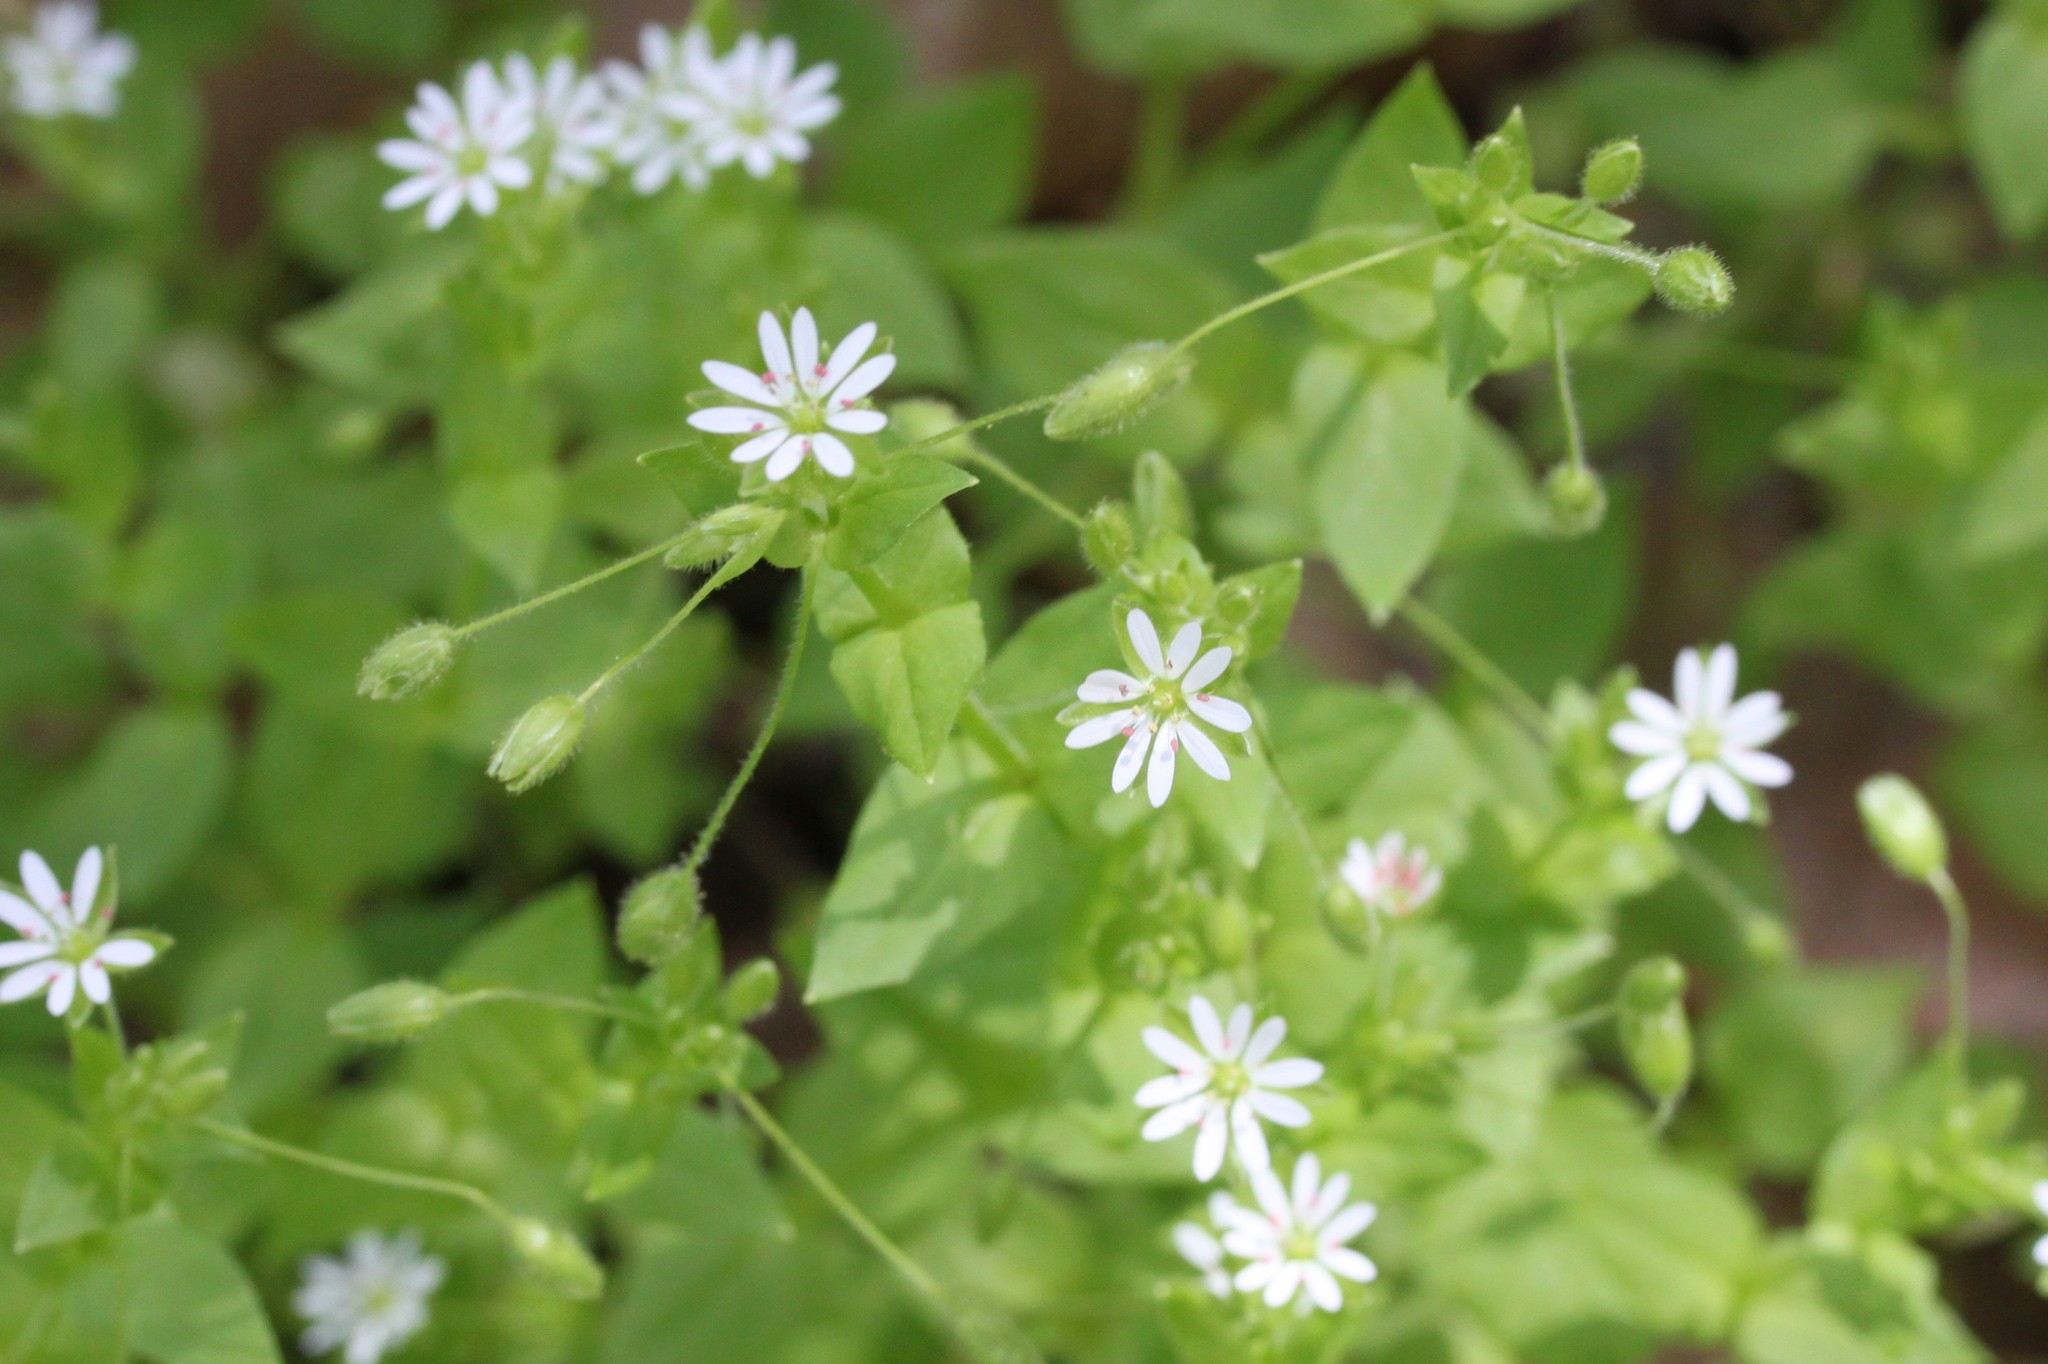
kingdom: Plantae
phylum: Tracheophyta
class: Magnoliopsida
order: Caryophyllales
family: Caryophyllaceae
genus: Stellaria
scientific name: Stellaria media
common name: Common chickweed
